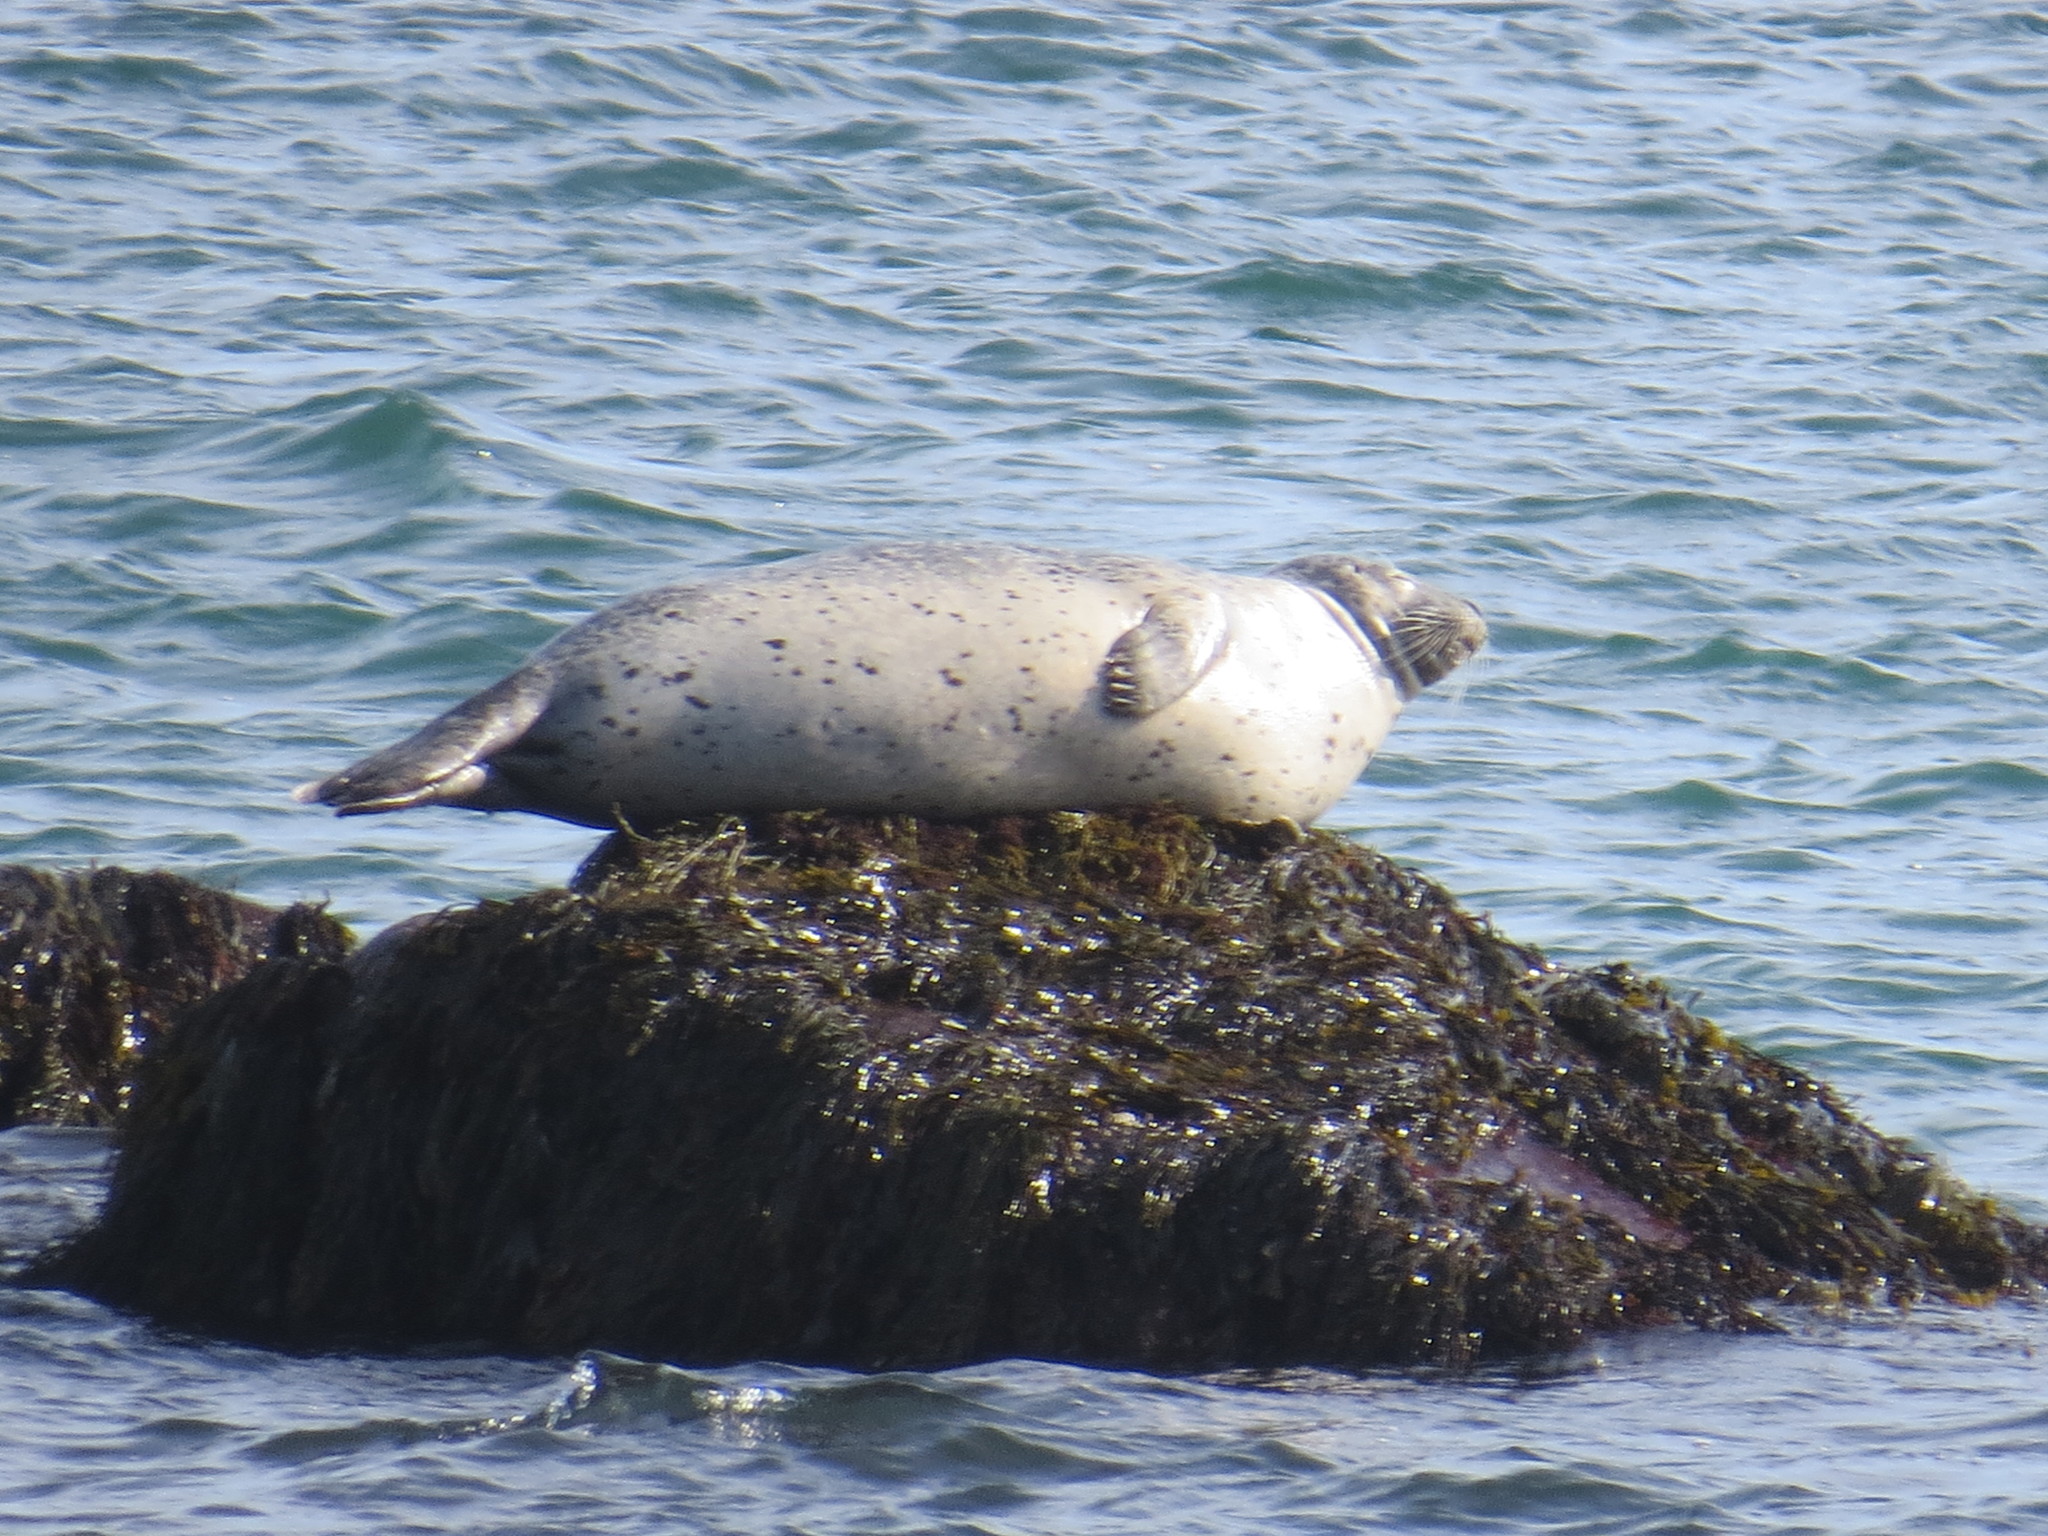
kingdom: Animalia
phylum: Chordata
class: Mammalia
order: Carnivora
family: Phocidae
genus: Phoca
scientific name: Phoca vitulina
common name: Harbor seal
